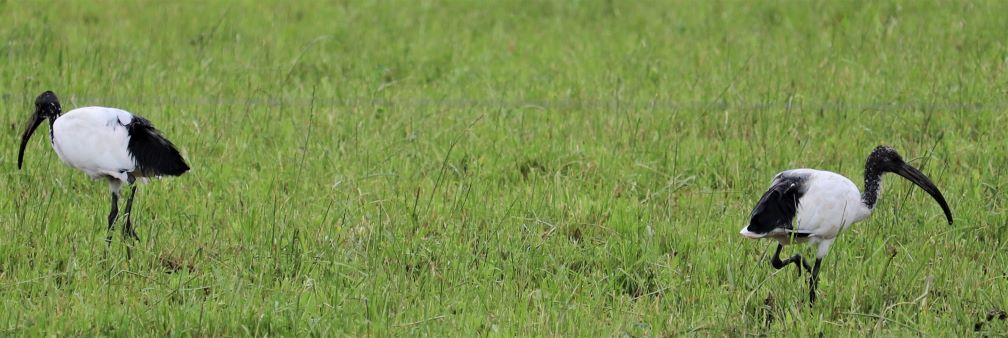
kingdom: Animalia
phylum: Chordata
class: Aves
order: Pelecaniformes
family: Threskiornithidae
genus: Threskiornis
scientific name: Threskiornis aethiopicus
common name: Sacred ibis
